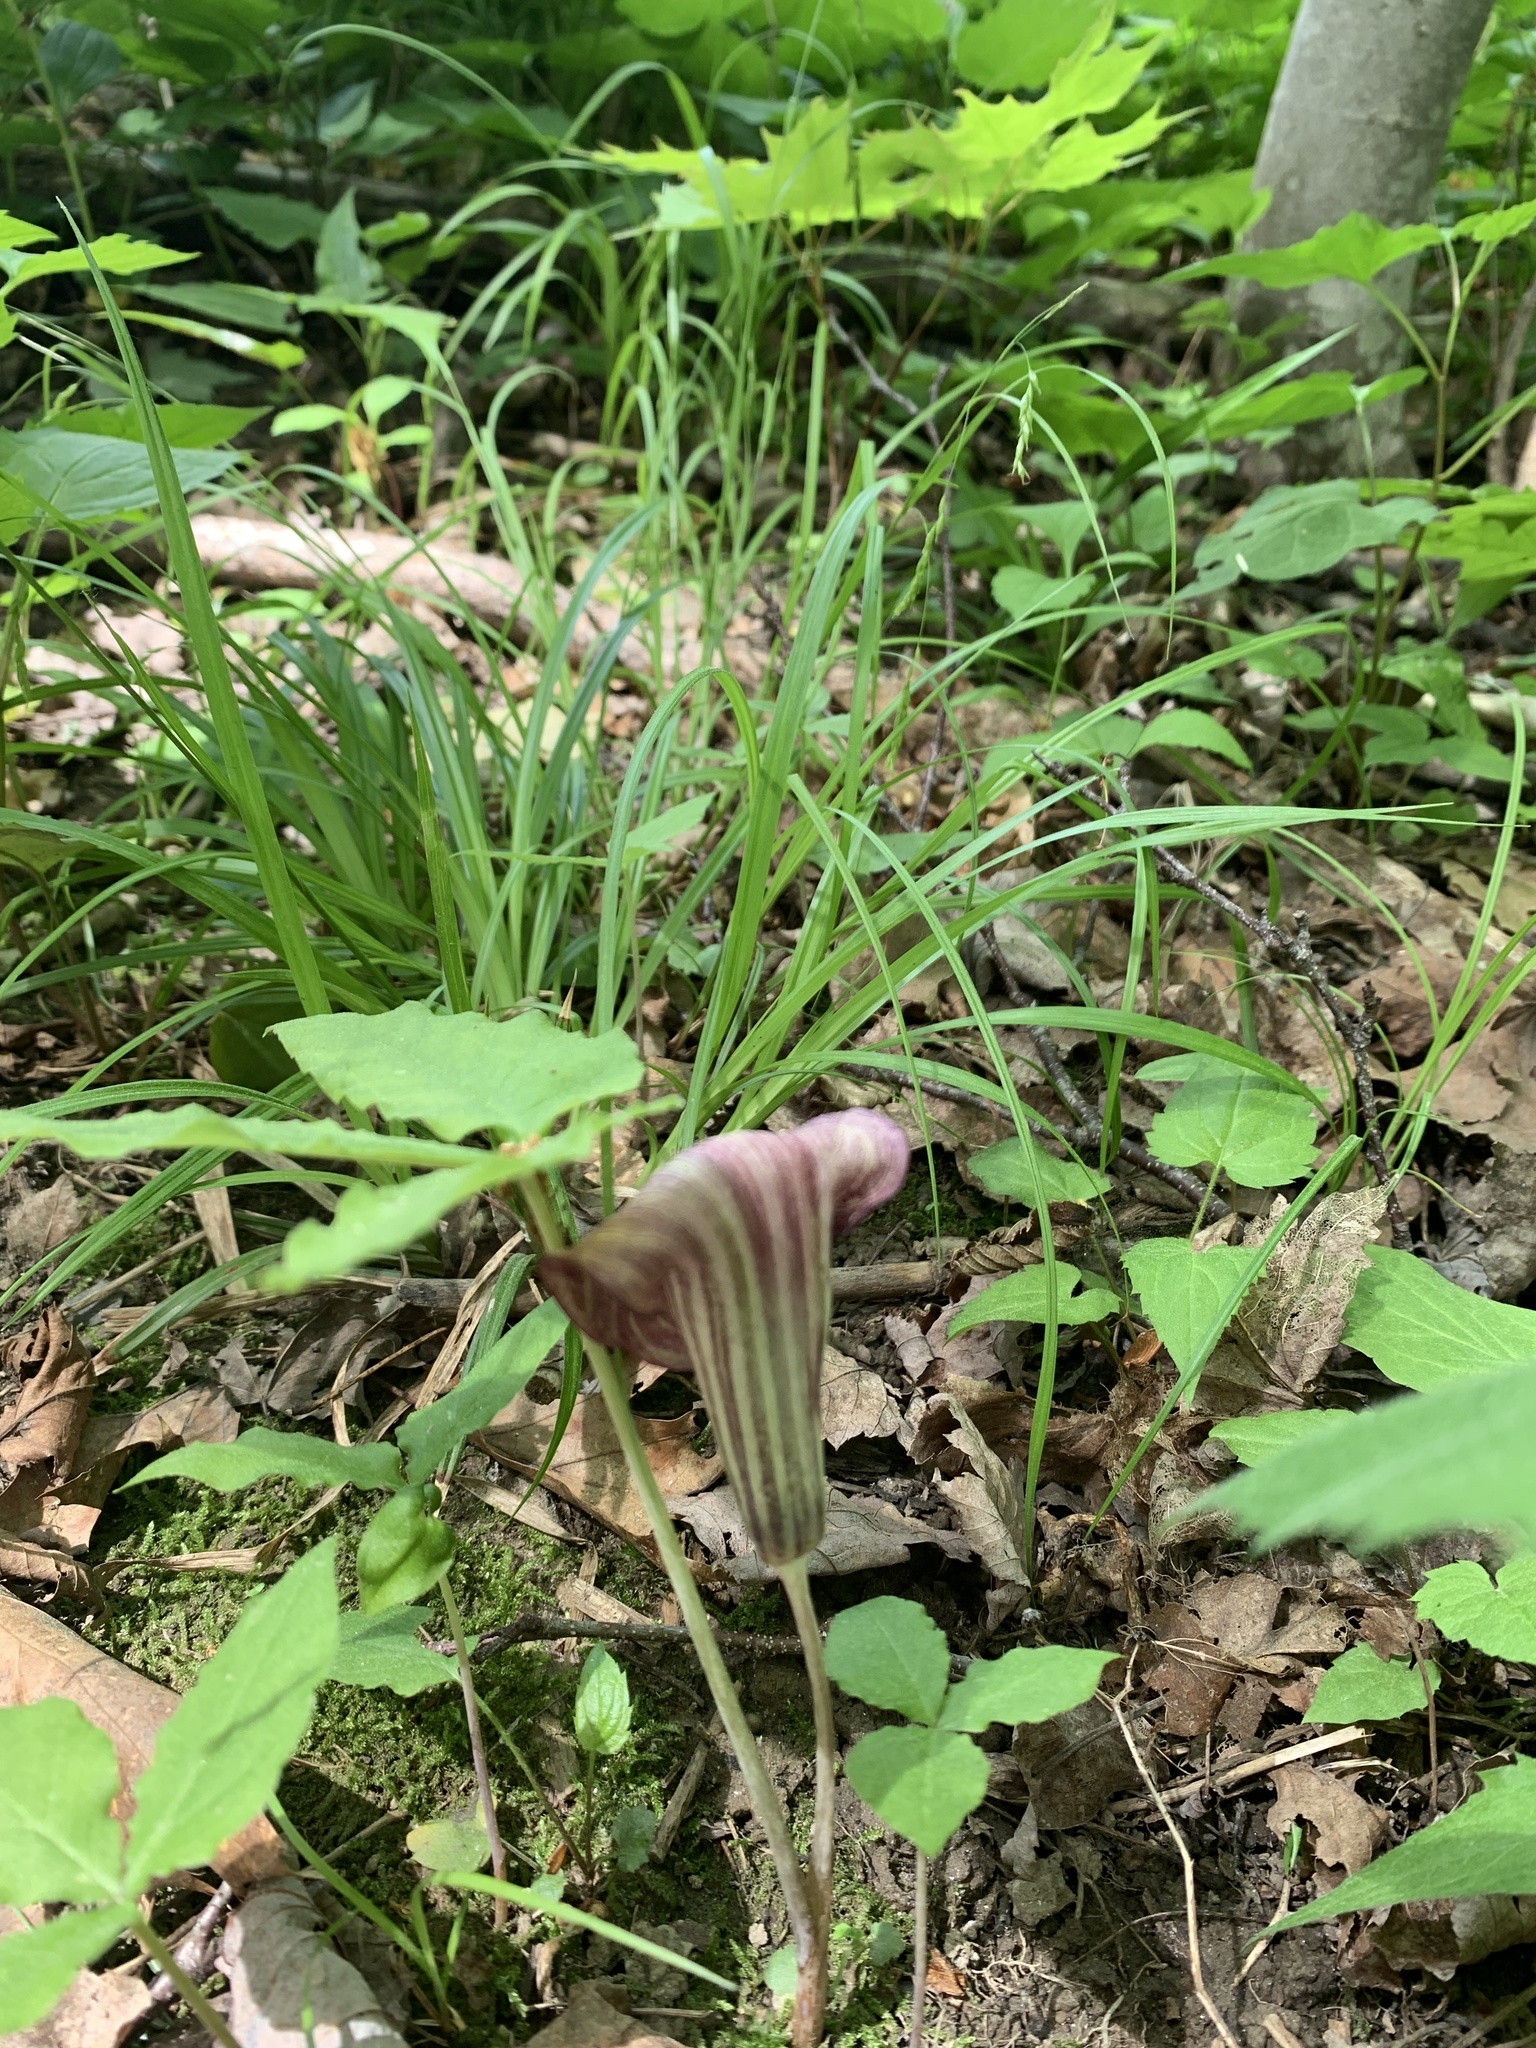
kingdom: Plantae
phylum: Tracheophyta
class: Liliopsida
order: Alismatales
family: Araceae
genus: Arisaema
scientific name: Arisaema triphyllum
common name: Jack-in-the-pulpit
